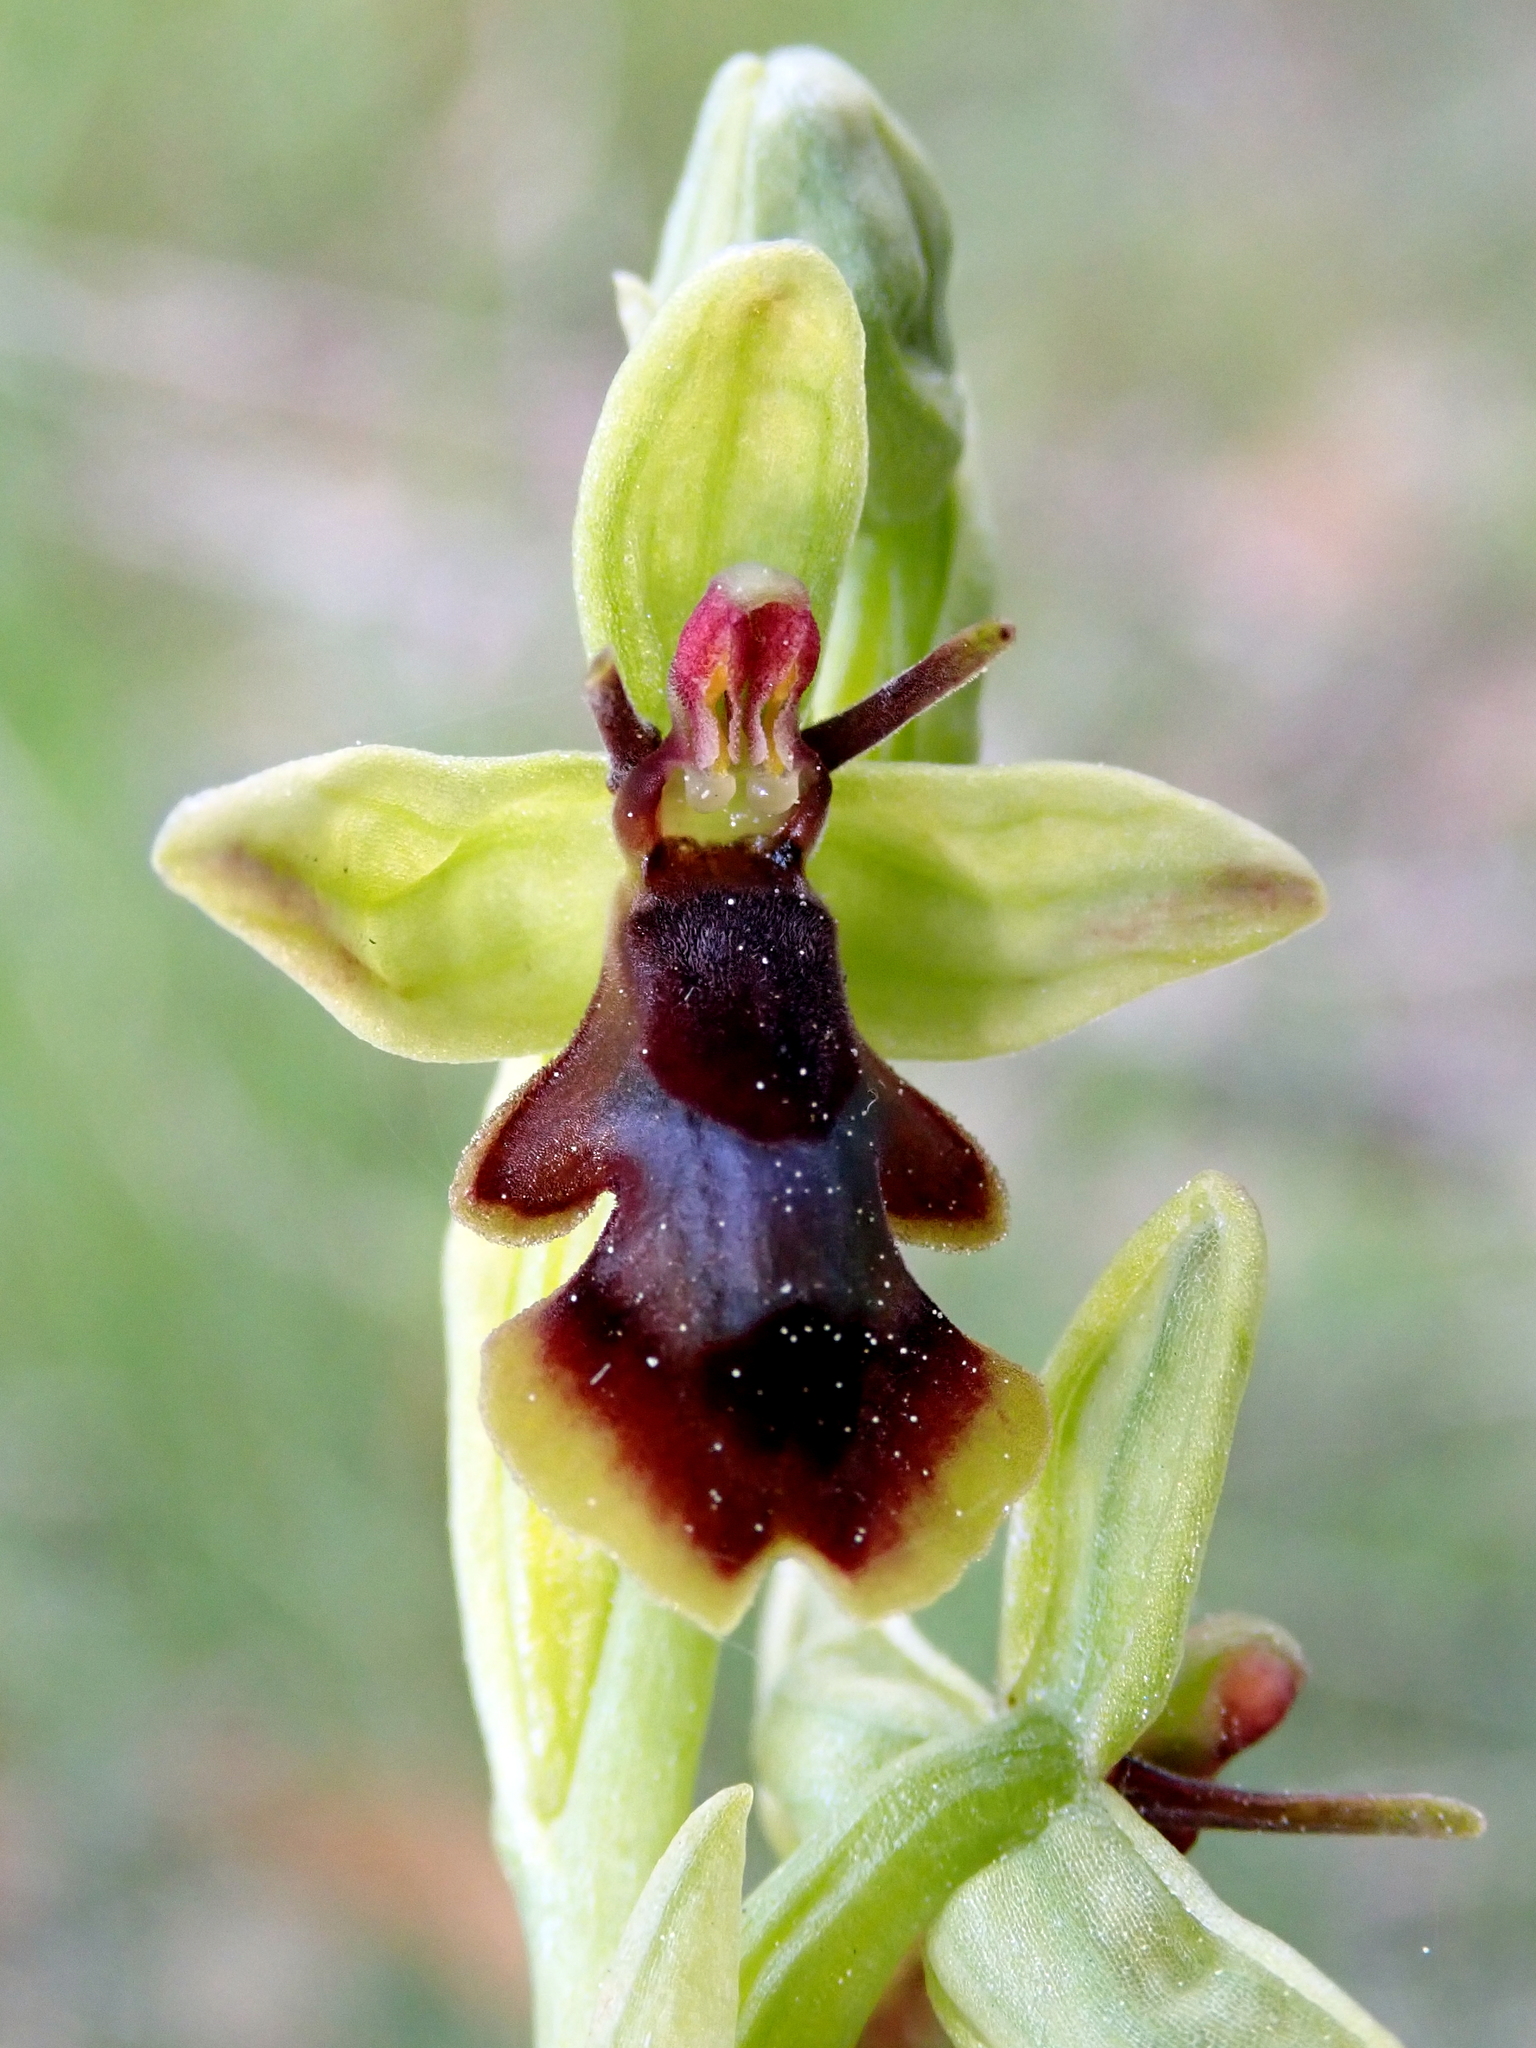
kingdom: Plantae
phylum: Tracheophyta
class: Liliopsida
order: Asparagales
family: Orchidaceae
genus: Ophrys
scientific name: Ophrys insectifera
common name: Fly orchid
